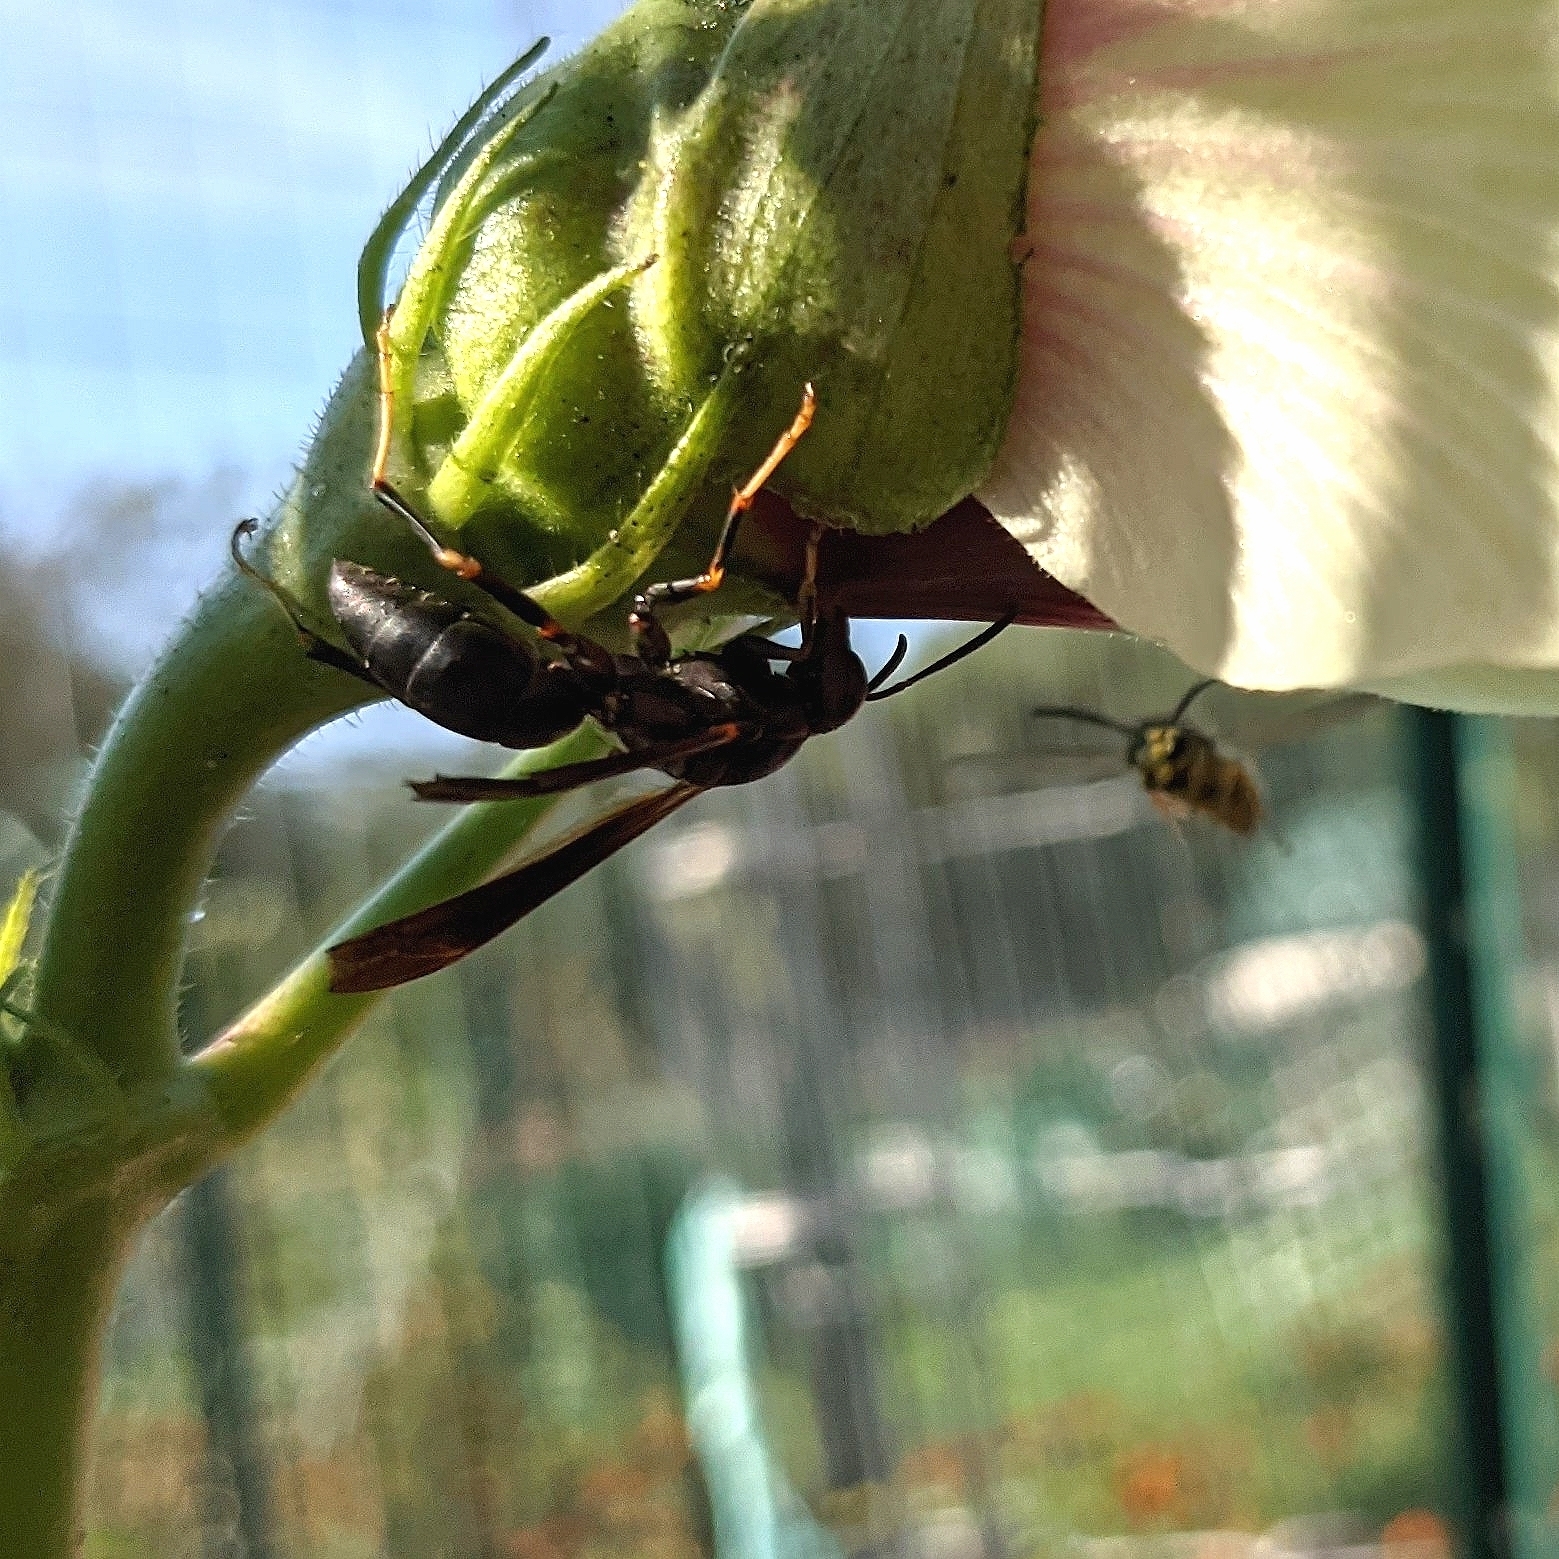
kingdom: Animalia
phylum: Arthropoda
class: Insecta
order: Hymenoptera
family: Eumenidae
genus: Polistes
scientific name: Polistes metricus
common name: Metric paper wasp
